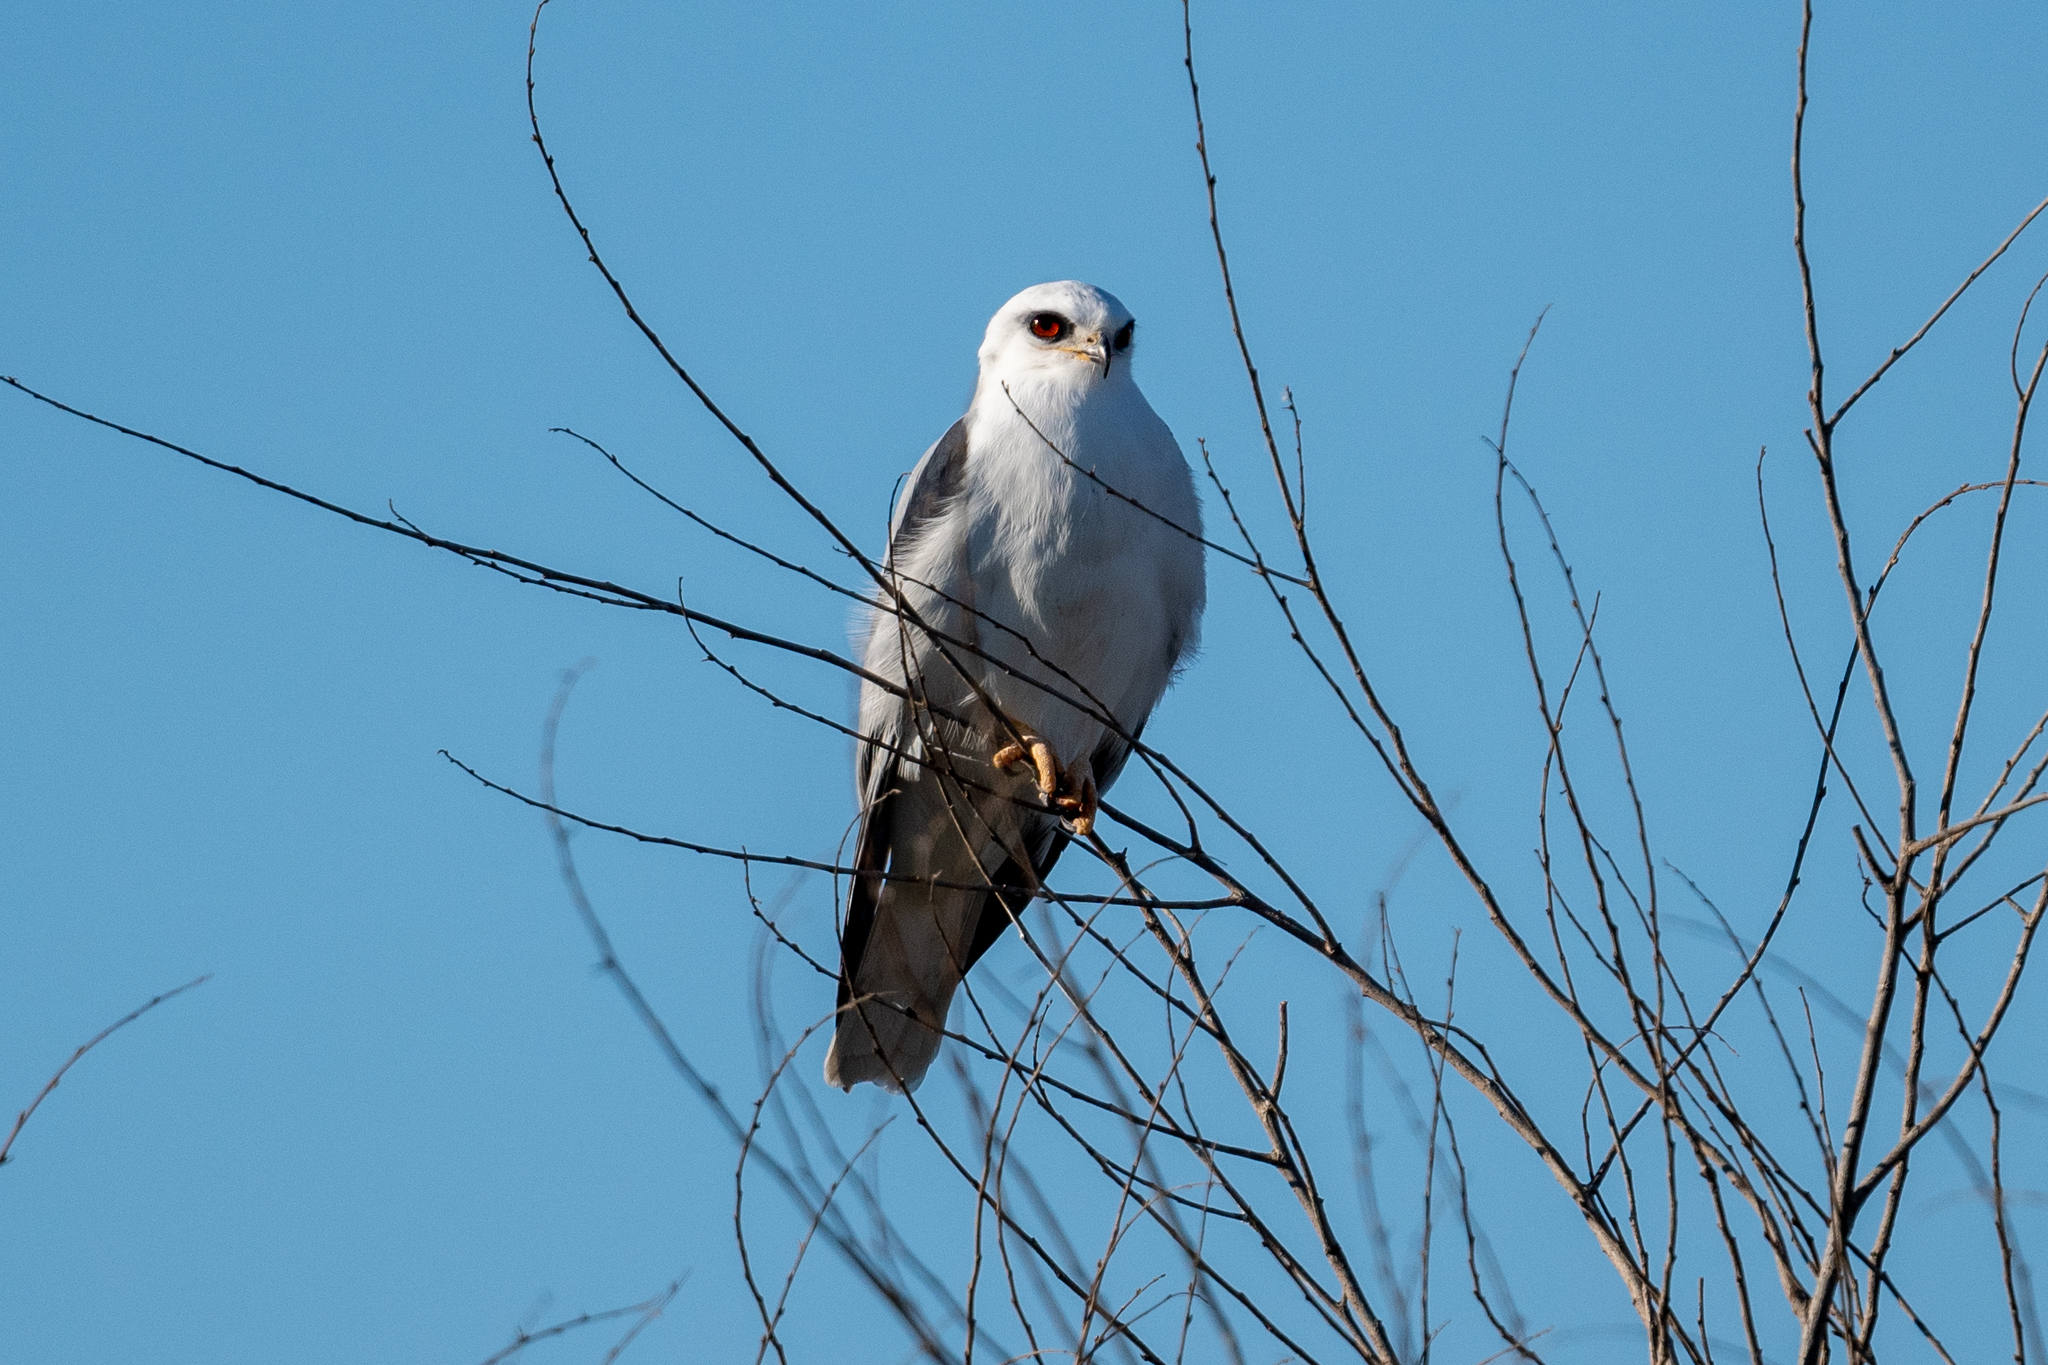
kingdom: Animalia
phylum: Chordata
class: Aves
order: Accipitriformes
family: Accipitridae
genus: Elanus
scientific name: Elanus leucurus
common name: White-tailed kite
